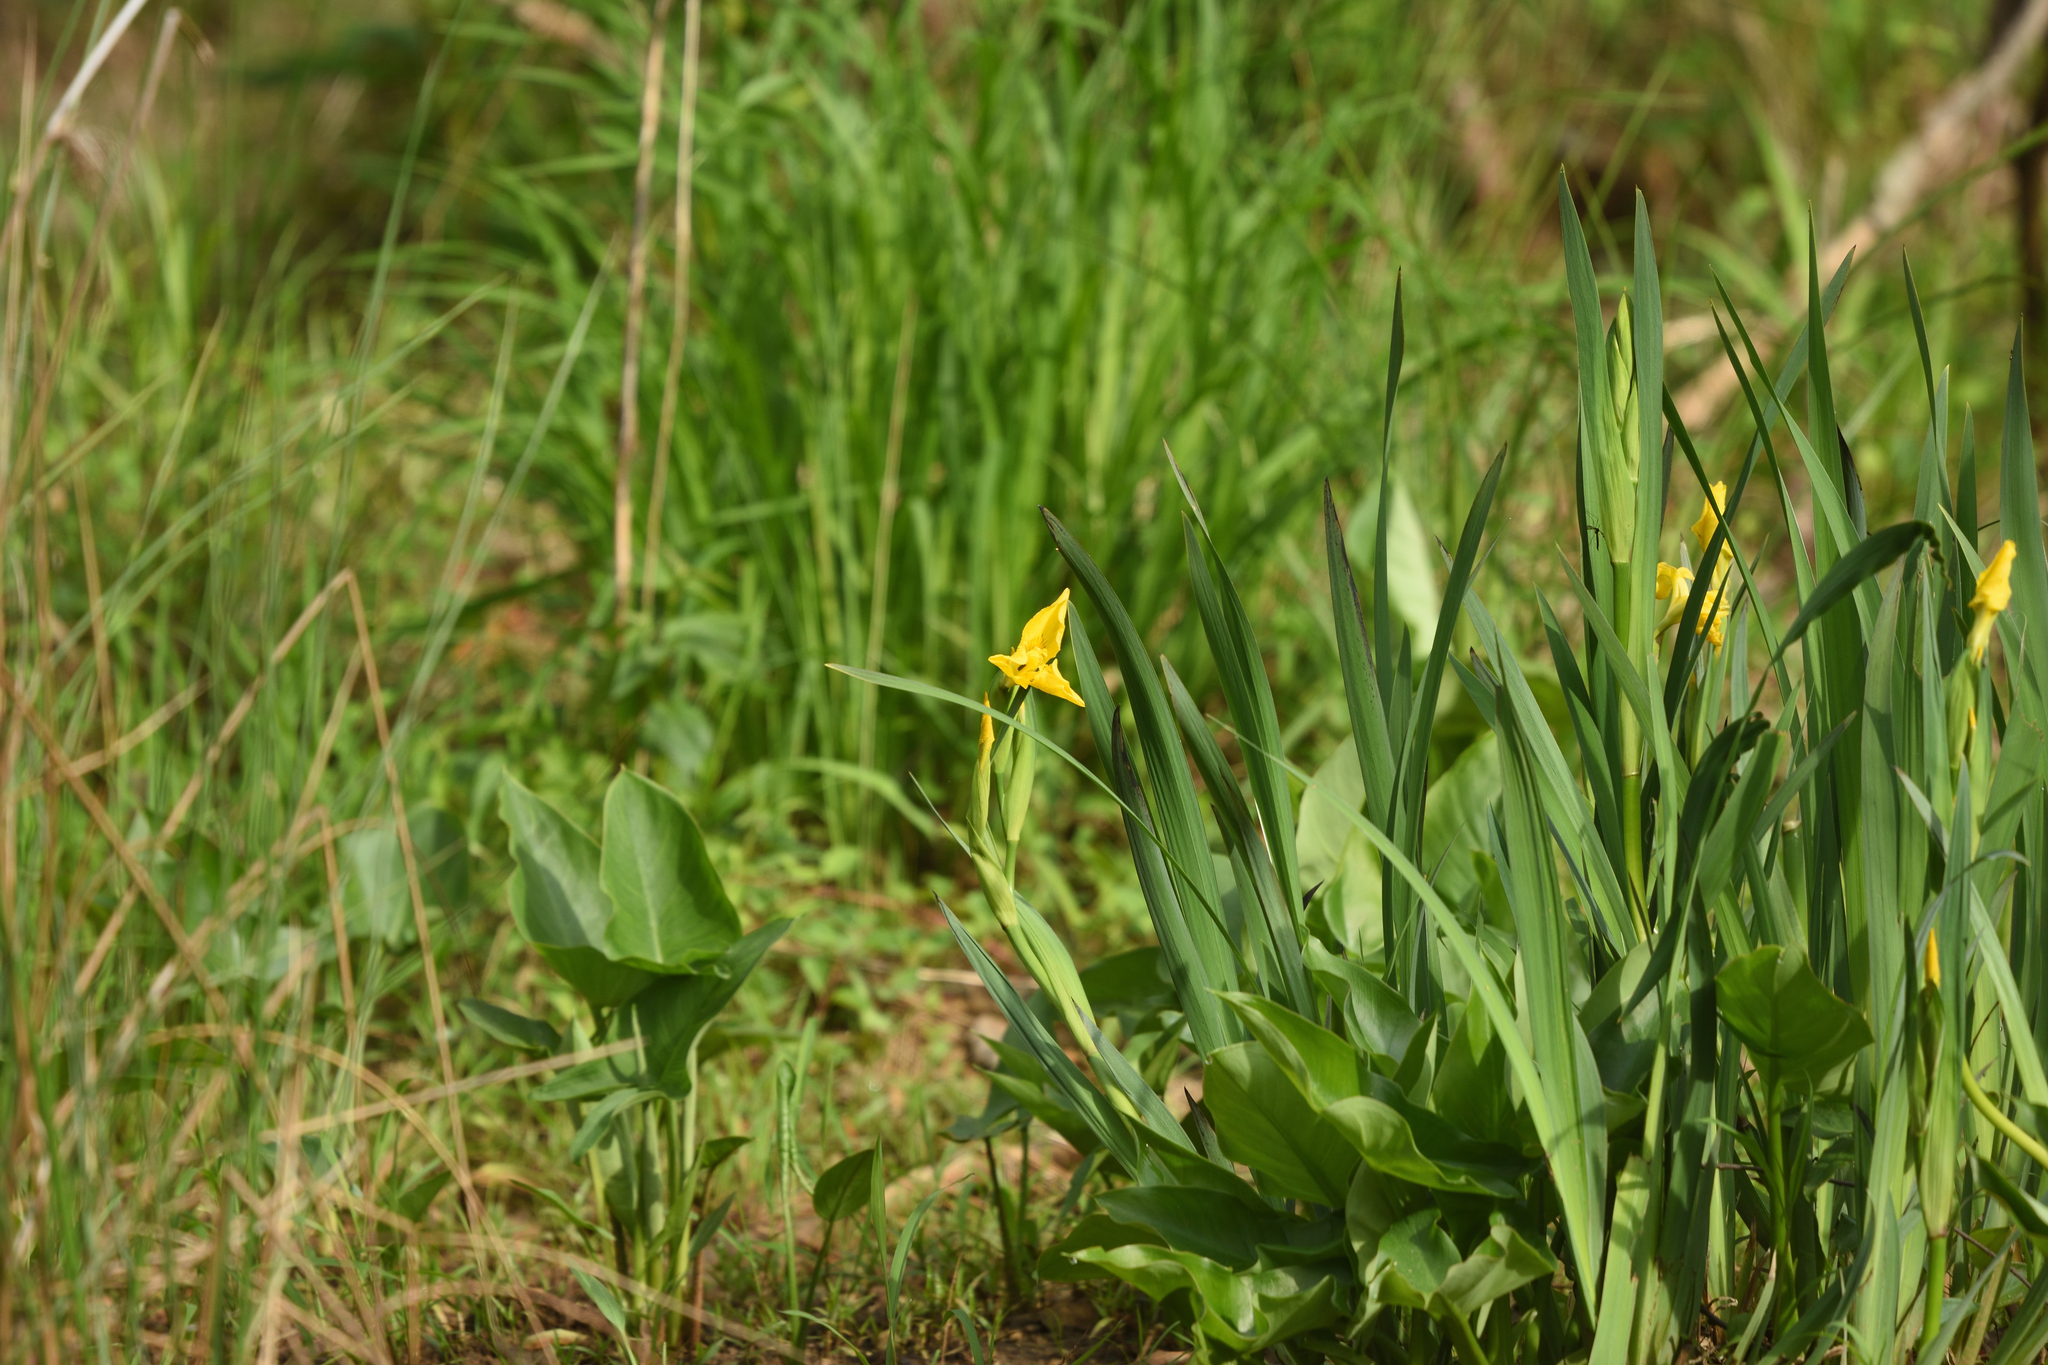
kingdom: Plantae
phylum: Tracheophyta
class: Liliopsida
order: Asparagales
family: Iridaceae
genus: Iris
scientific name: Iris pseudacorus
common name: Yellow flag
